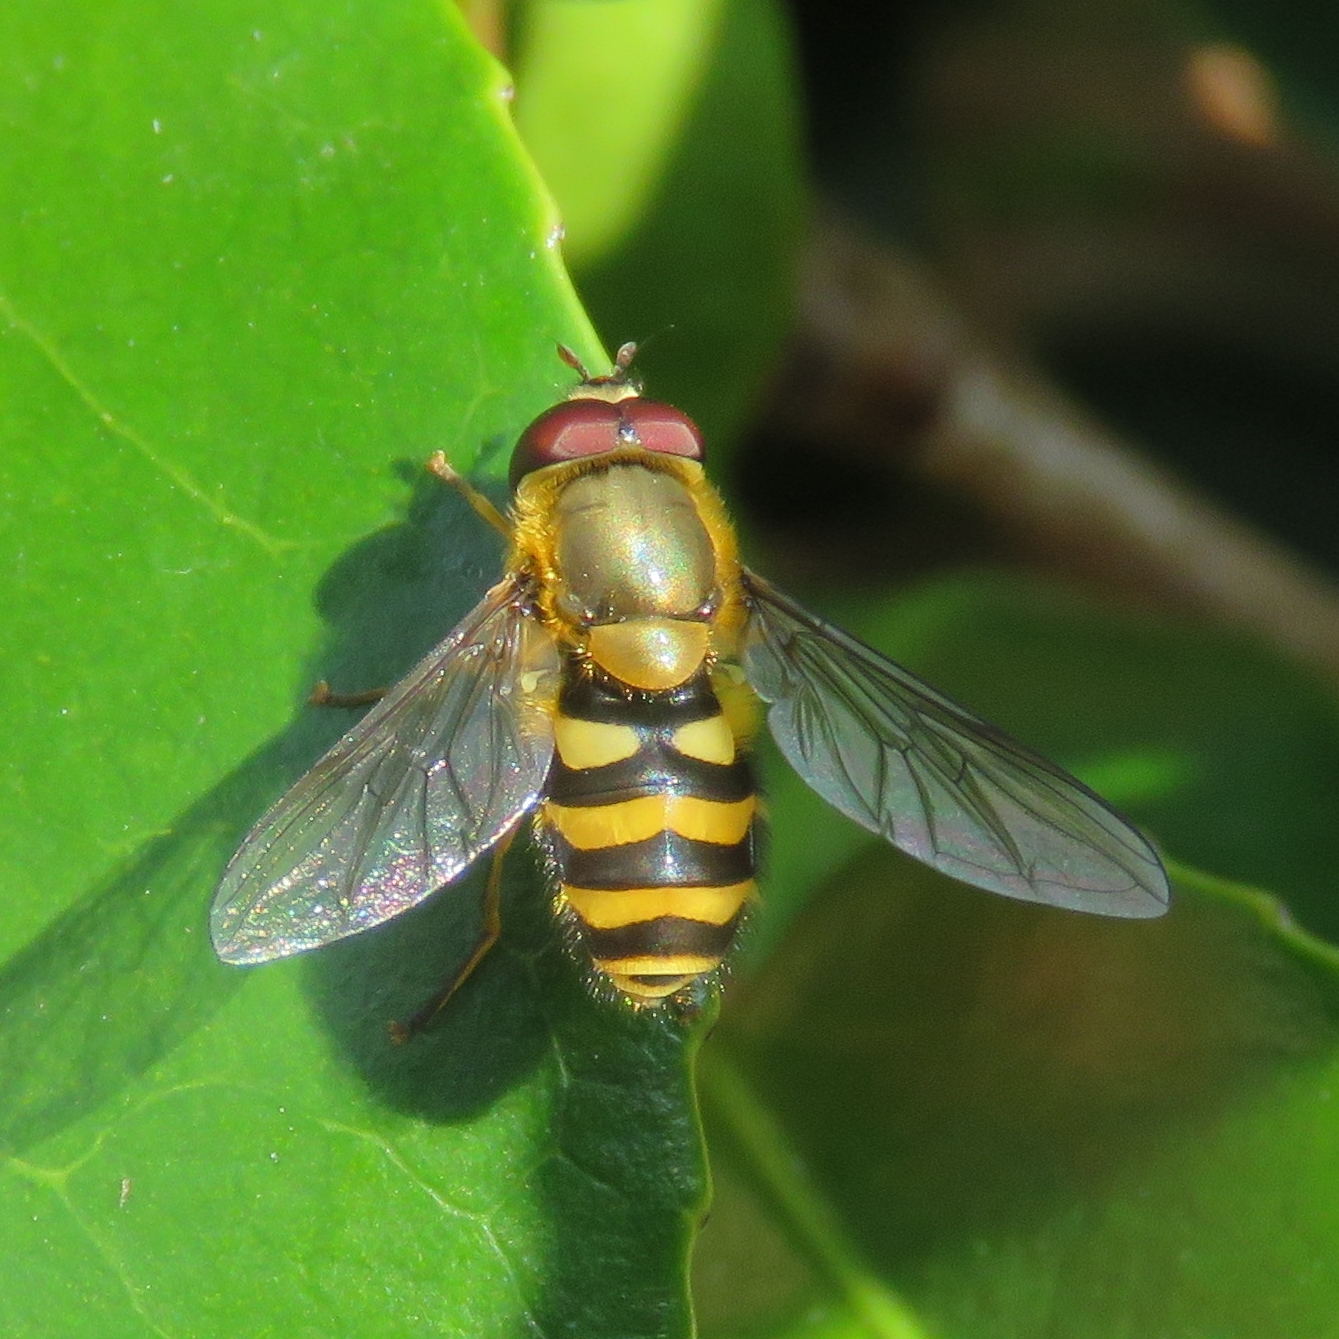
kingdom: Animalia
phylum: Arthropoda
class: Insecta
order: Diptera
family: Syrphidae
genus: Syrphus
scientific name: Syrphus
